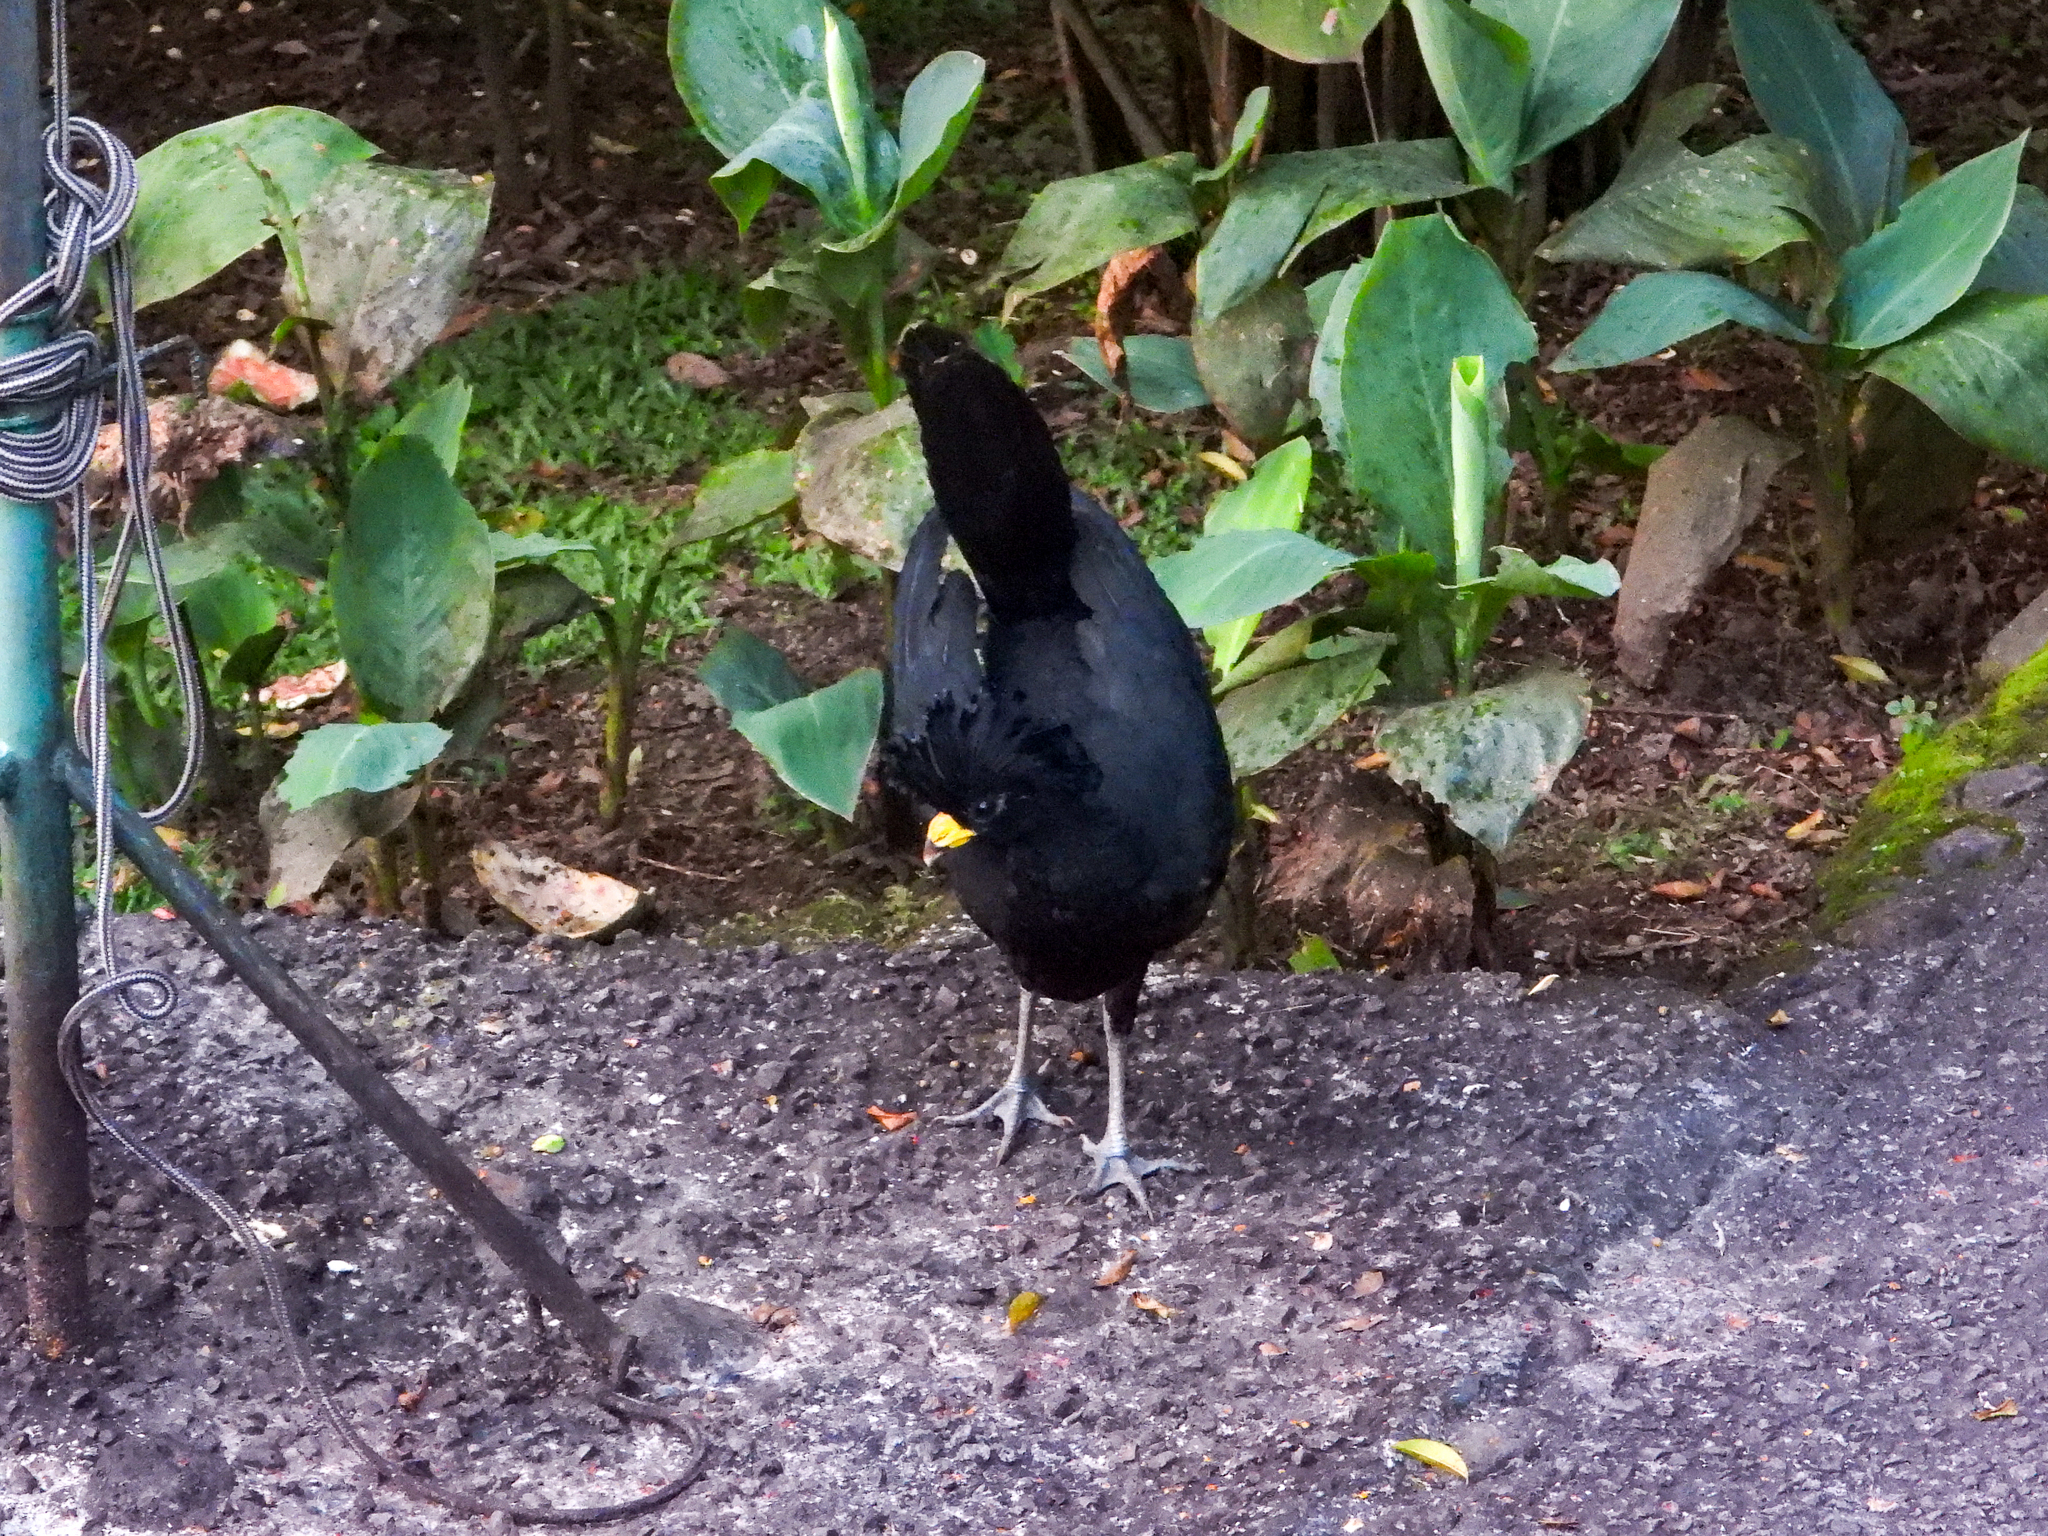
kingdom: Animalia
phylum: Chordata
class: Aves
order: Galliformes
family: Cracidae
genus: Crax
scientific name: Crax rubra
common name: Great curassow
